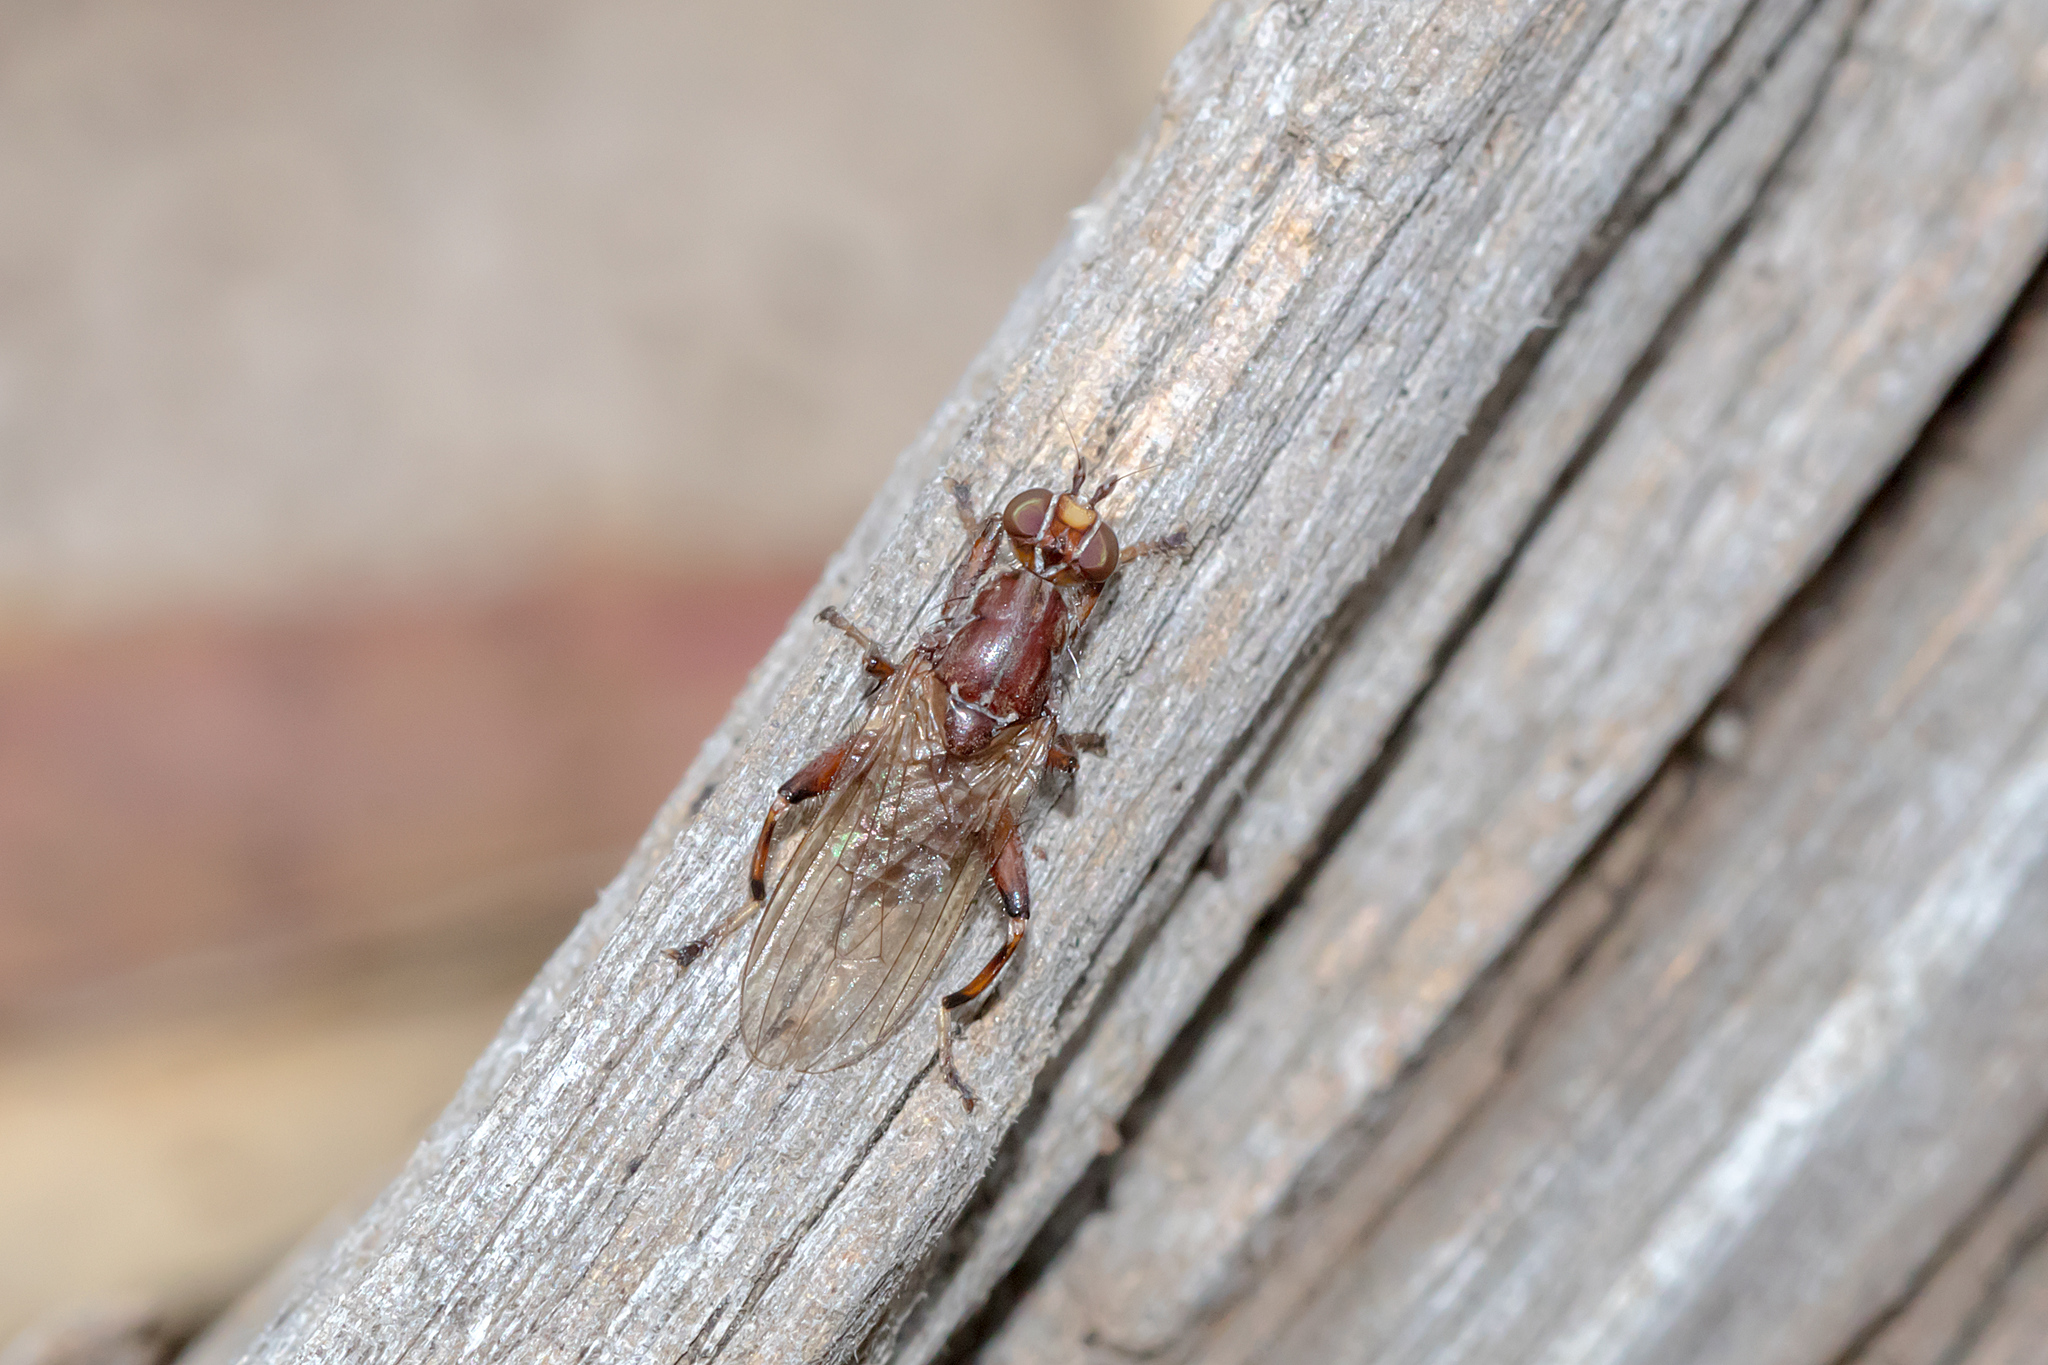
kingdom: Animalia
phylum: Arthropoda
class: Insecta
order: Diptera
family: Heleomyzidae
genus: Tapeigaster
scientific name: Tapeigaster nigricornis
